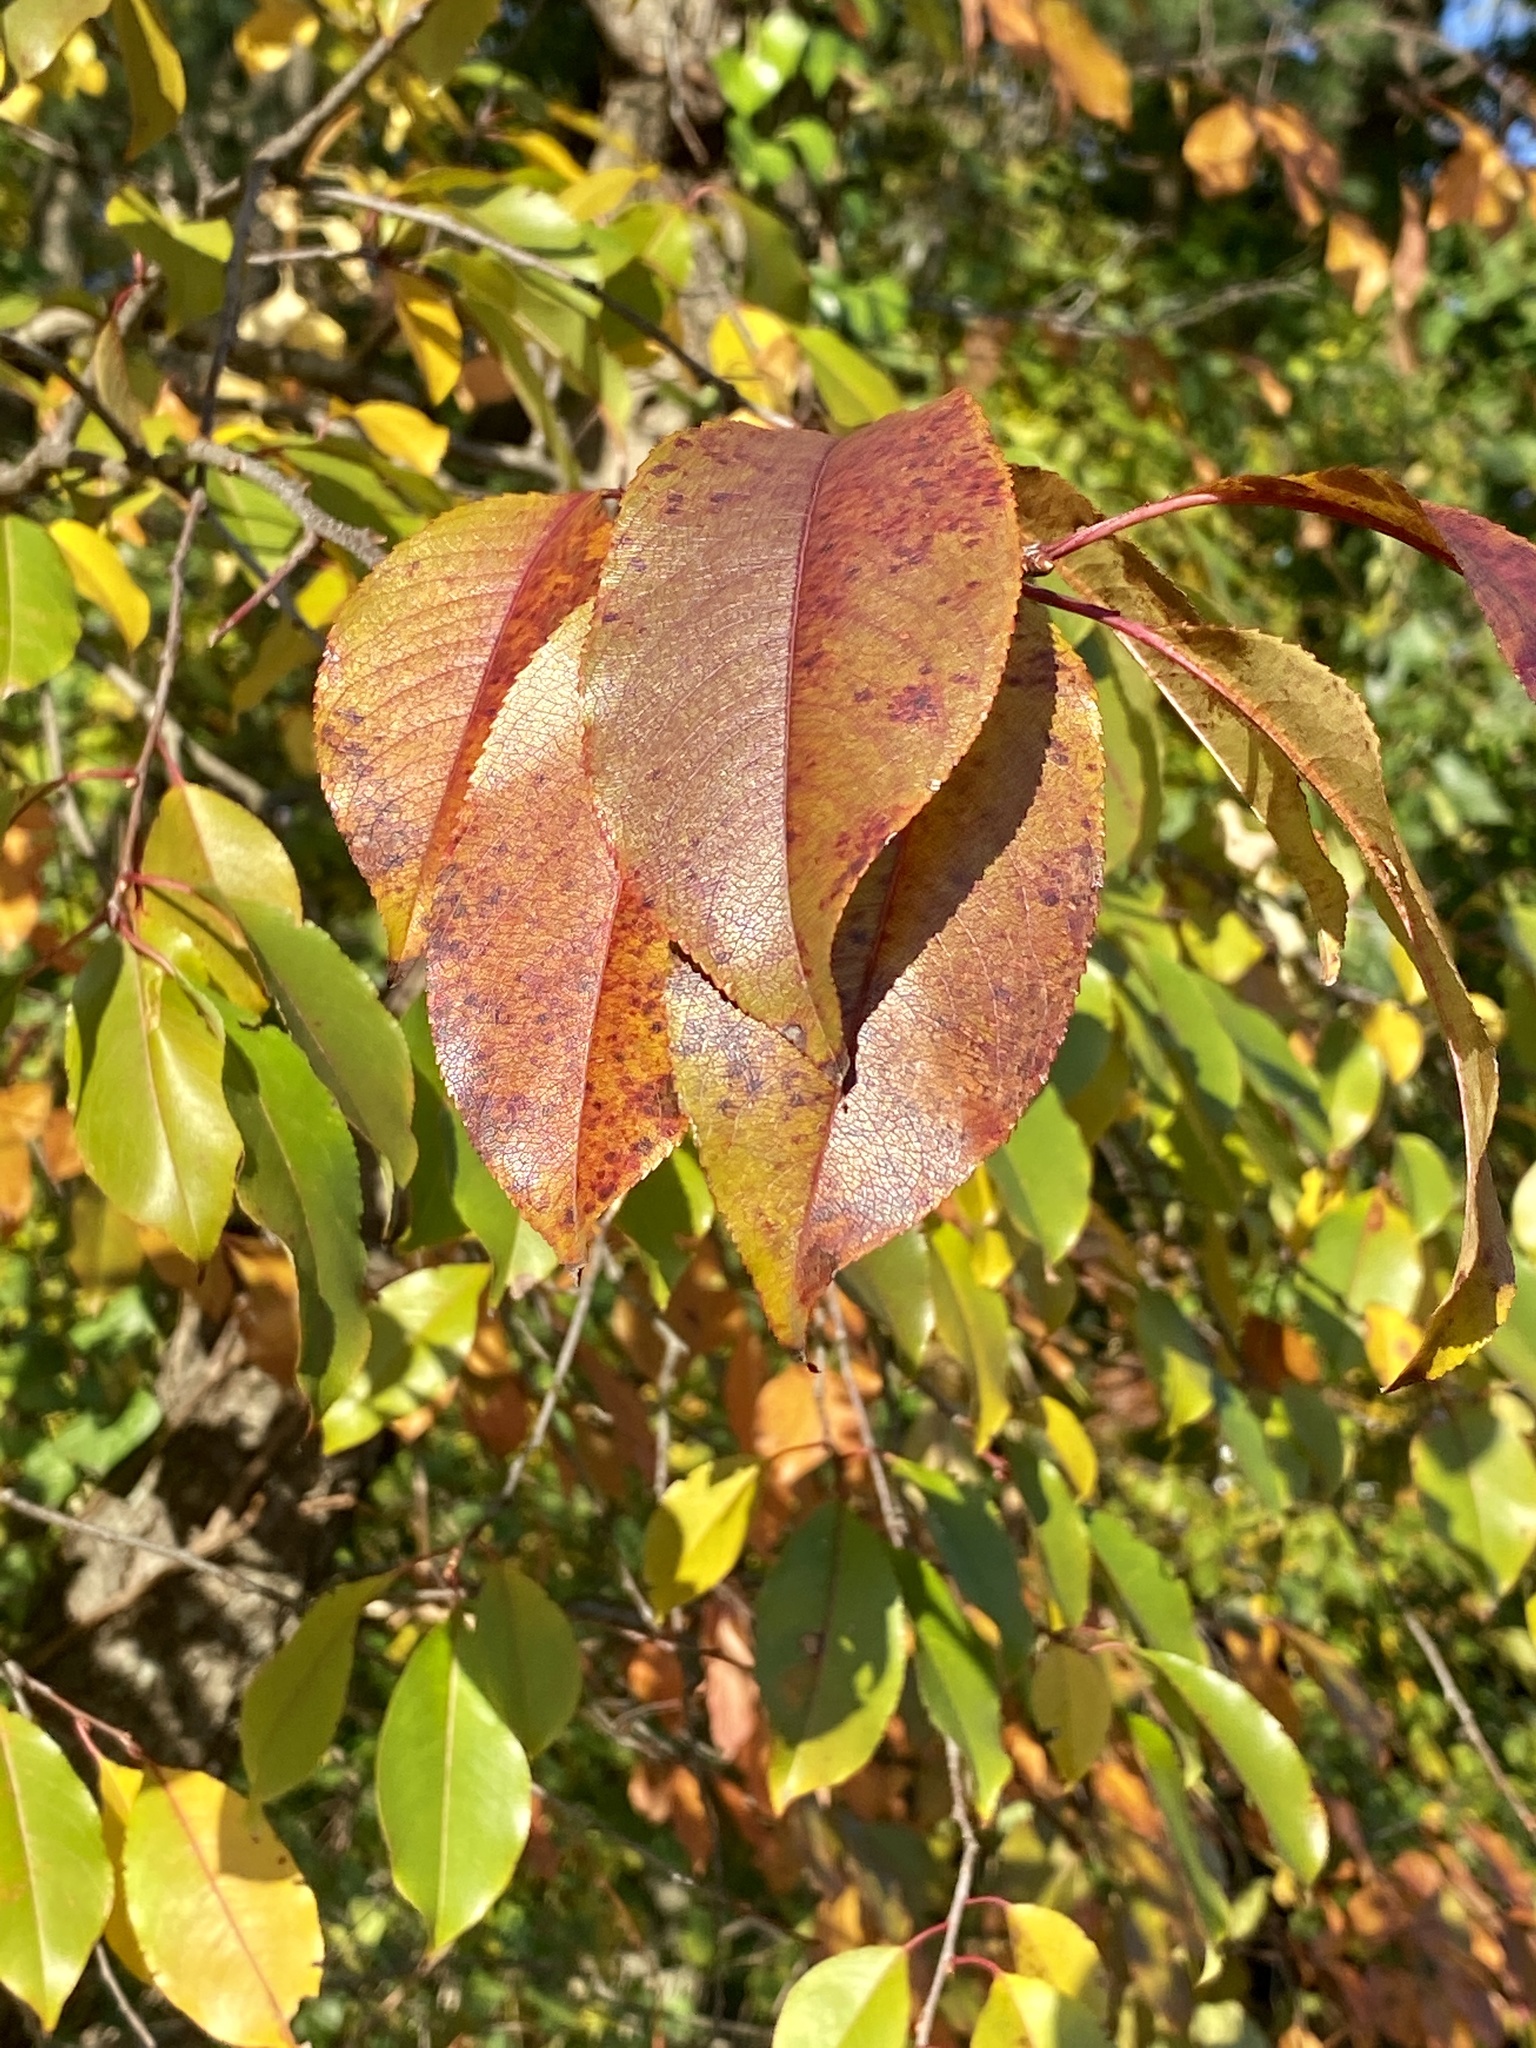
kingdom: Plantae
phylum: Tracheophyta
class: Magnoliopsida
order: Rosales
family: Rosaceae
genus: Prunus
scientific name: Prunus serotina
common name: Black cherry
